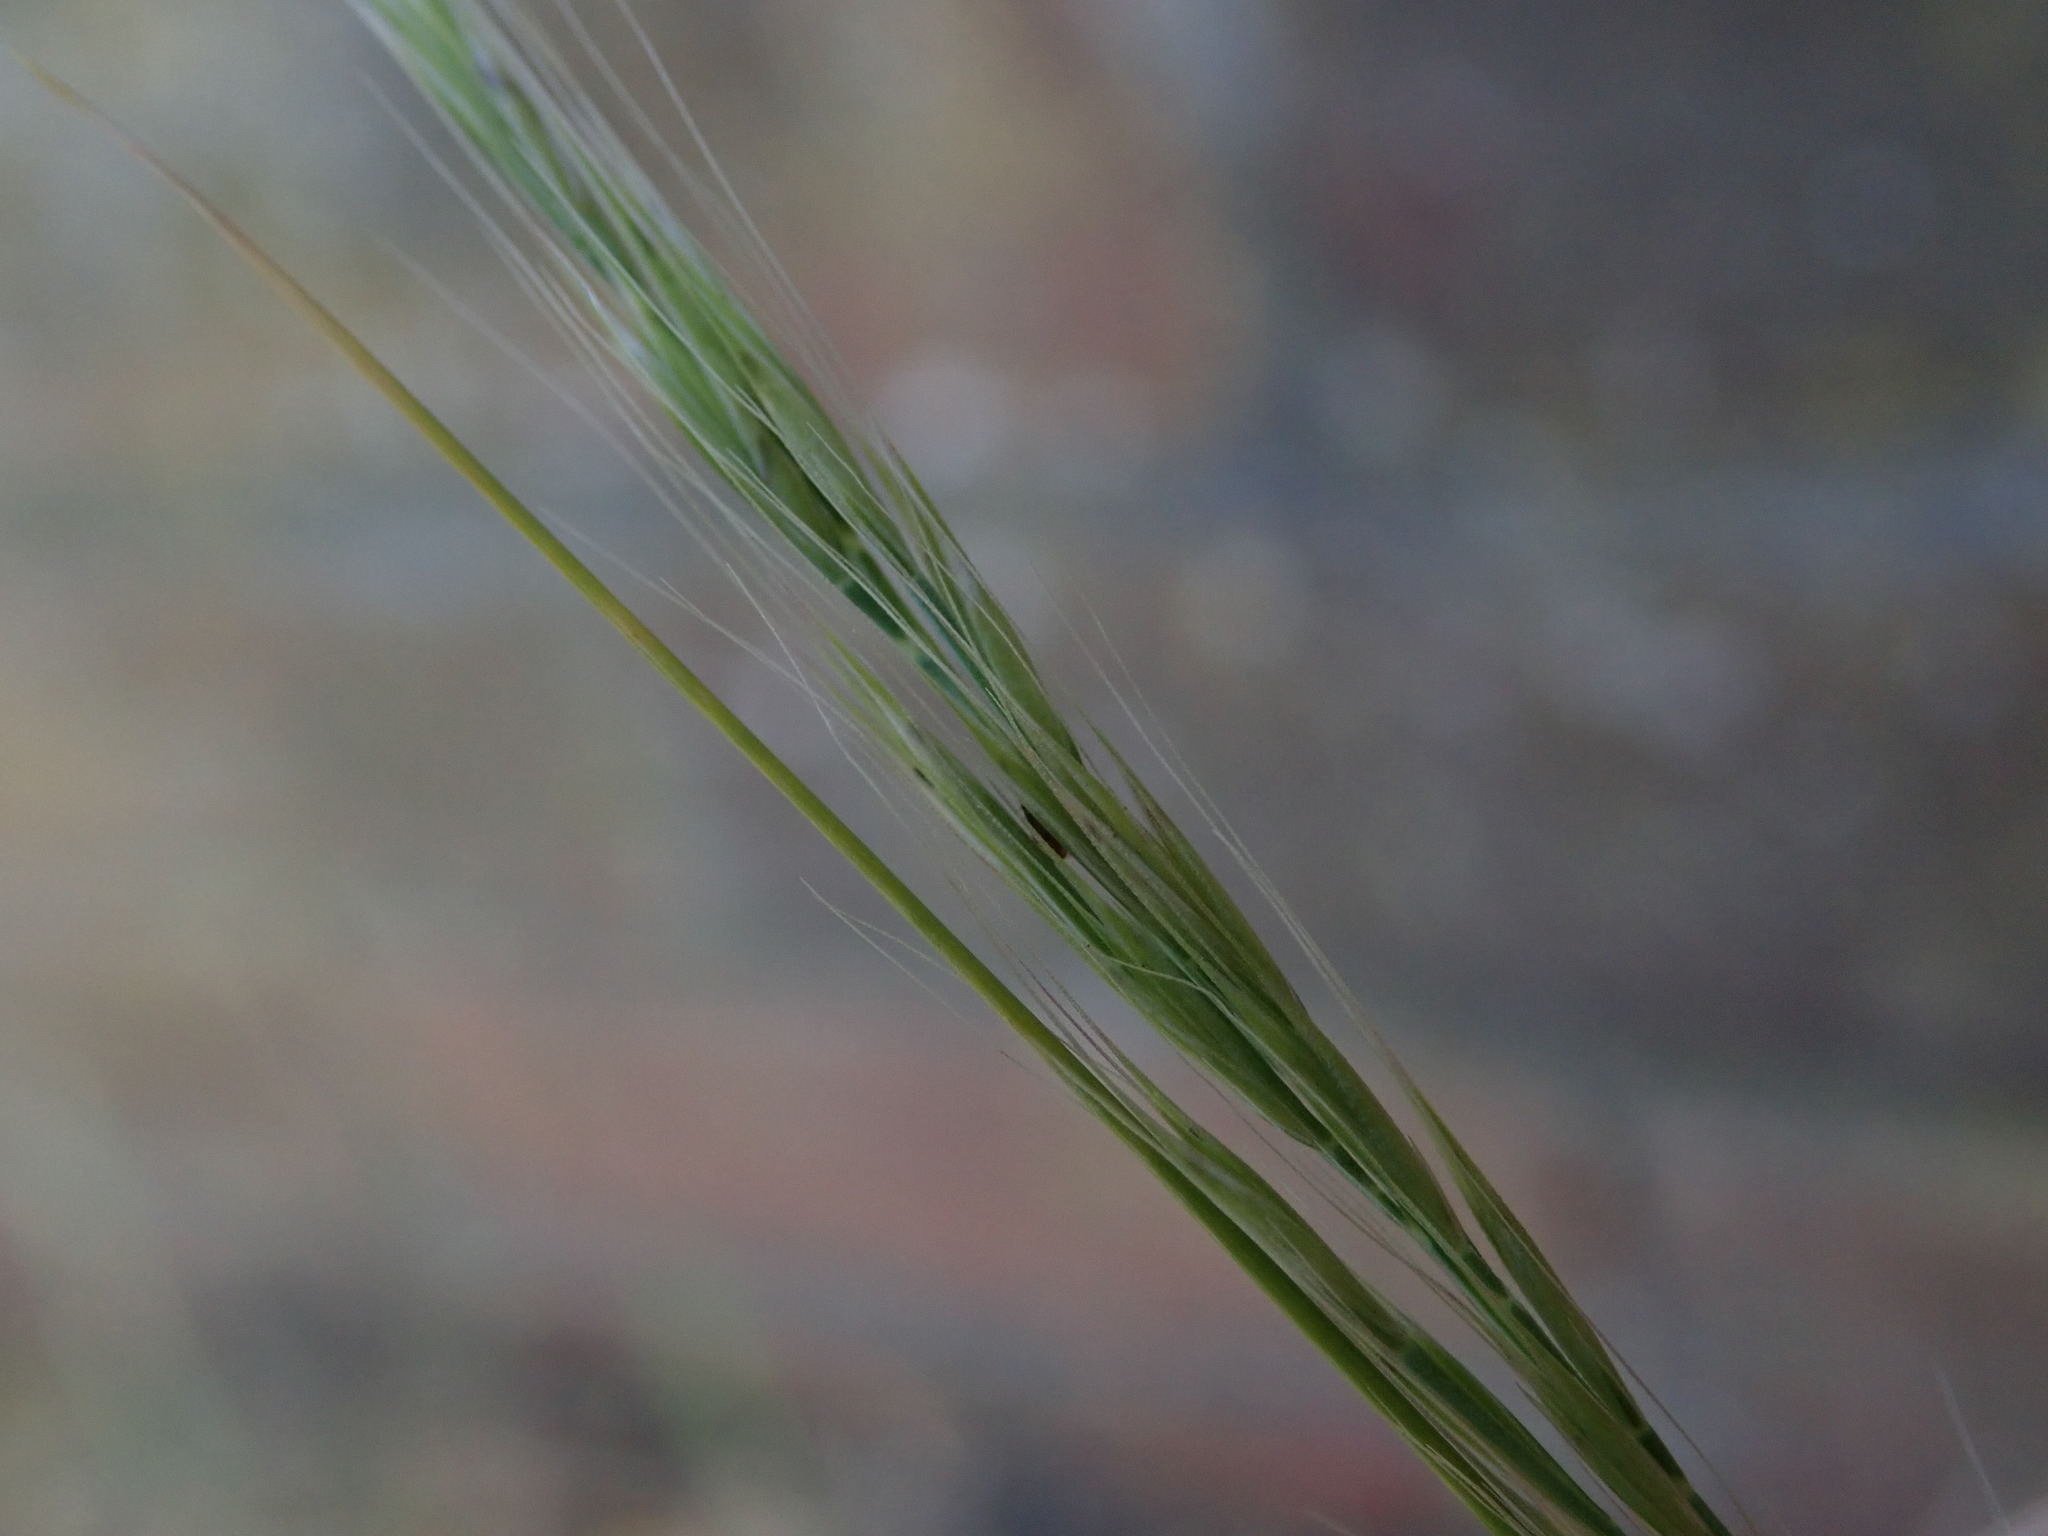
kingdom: Plantae
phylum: Tracheophyta
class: Liliopsida
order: Poales
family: Poaceae
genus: Festuca
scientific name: Festuca myuros
